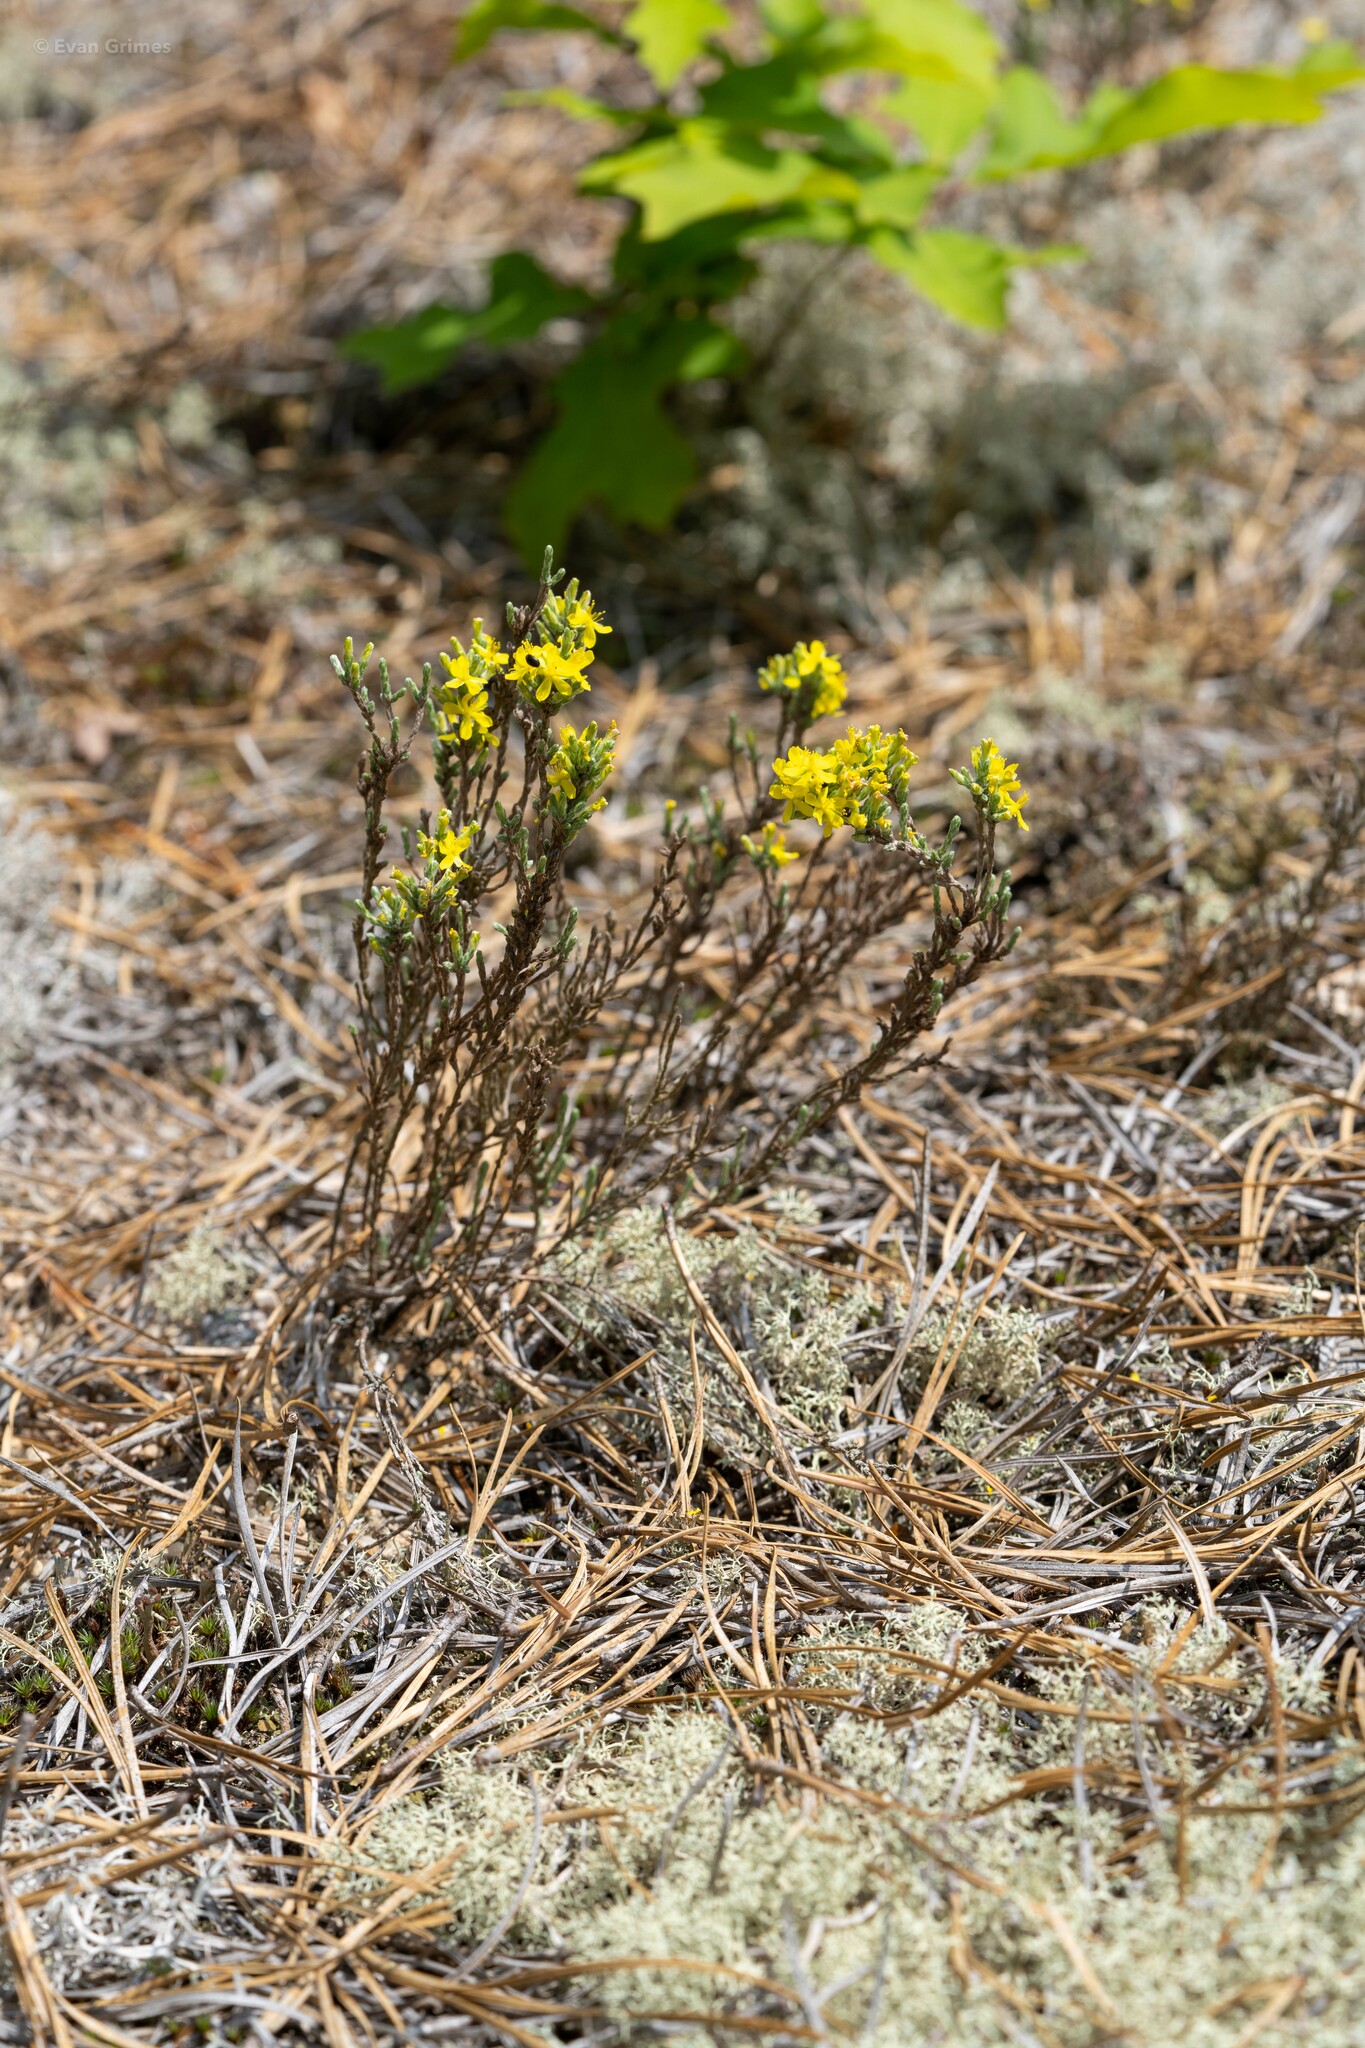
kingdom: Plantae
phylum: Tracheophyta
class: Magnoliopsida
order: Malvales
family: Cistaceae
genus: Hudsonia
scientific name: Hudsonia tomentosa
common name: Beach-heath
